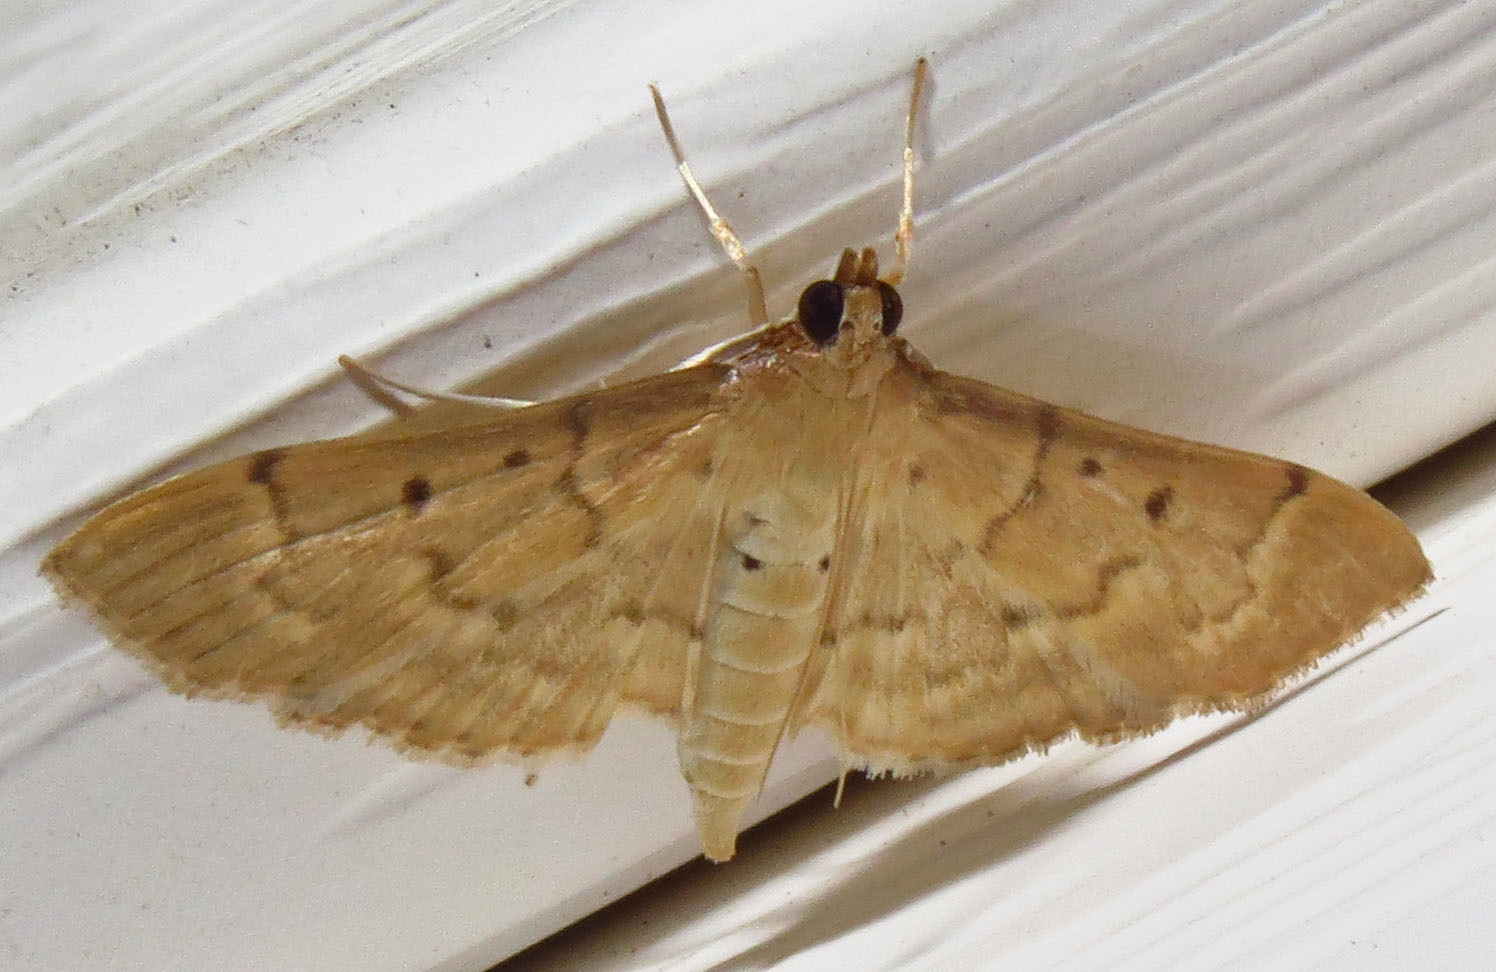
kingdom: Animalia
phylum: Arthropoda
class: Insecta
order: Lepidoptera
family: Crambidae
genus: Herpetogramma
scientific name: Herpetogramma bipunctalis
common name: Southern beet webworm
